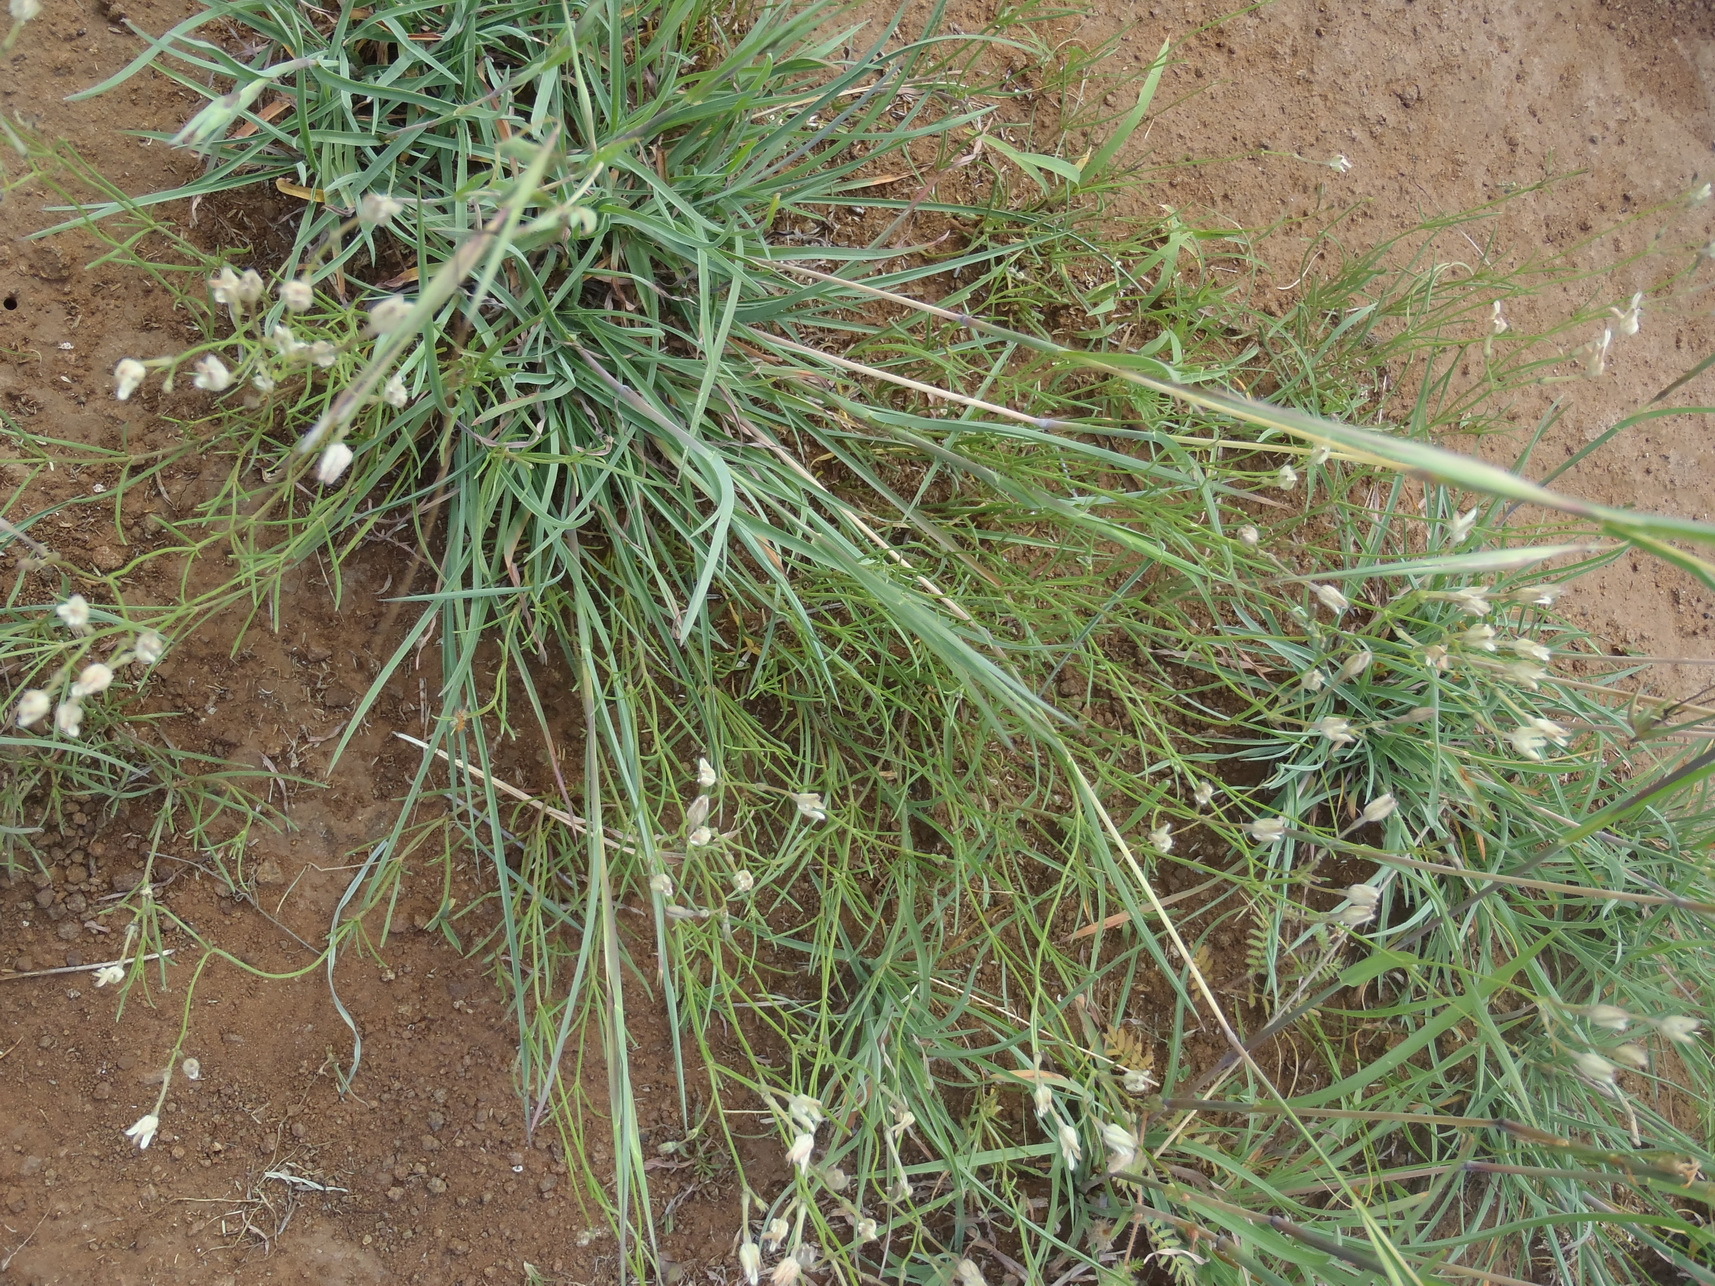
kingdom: Plantae
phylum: Tracheophyta
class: Magnoliopsida
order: Gentianales
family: Rubiaceae
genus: Kohautia
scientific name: Kohautia amatymbica
